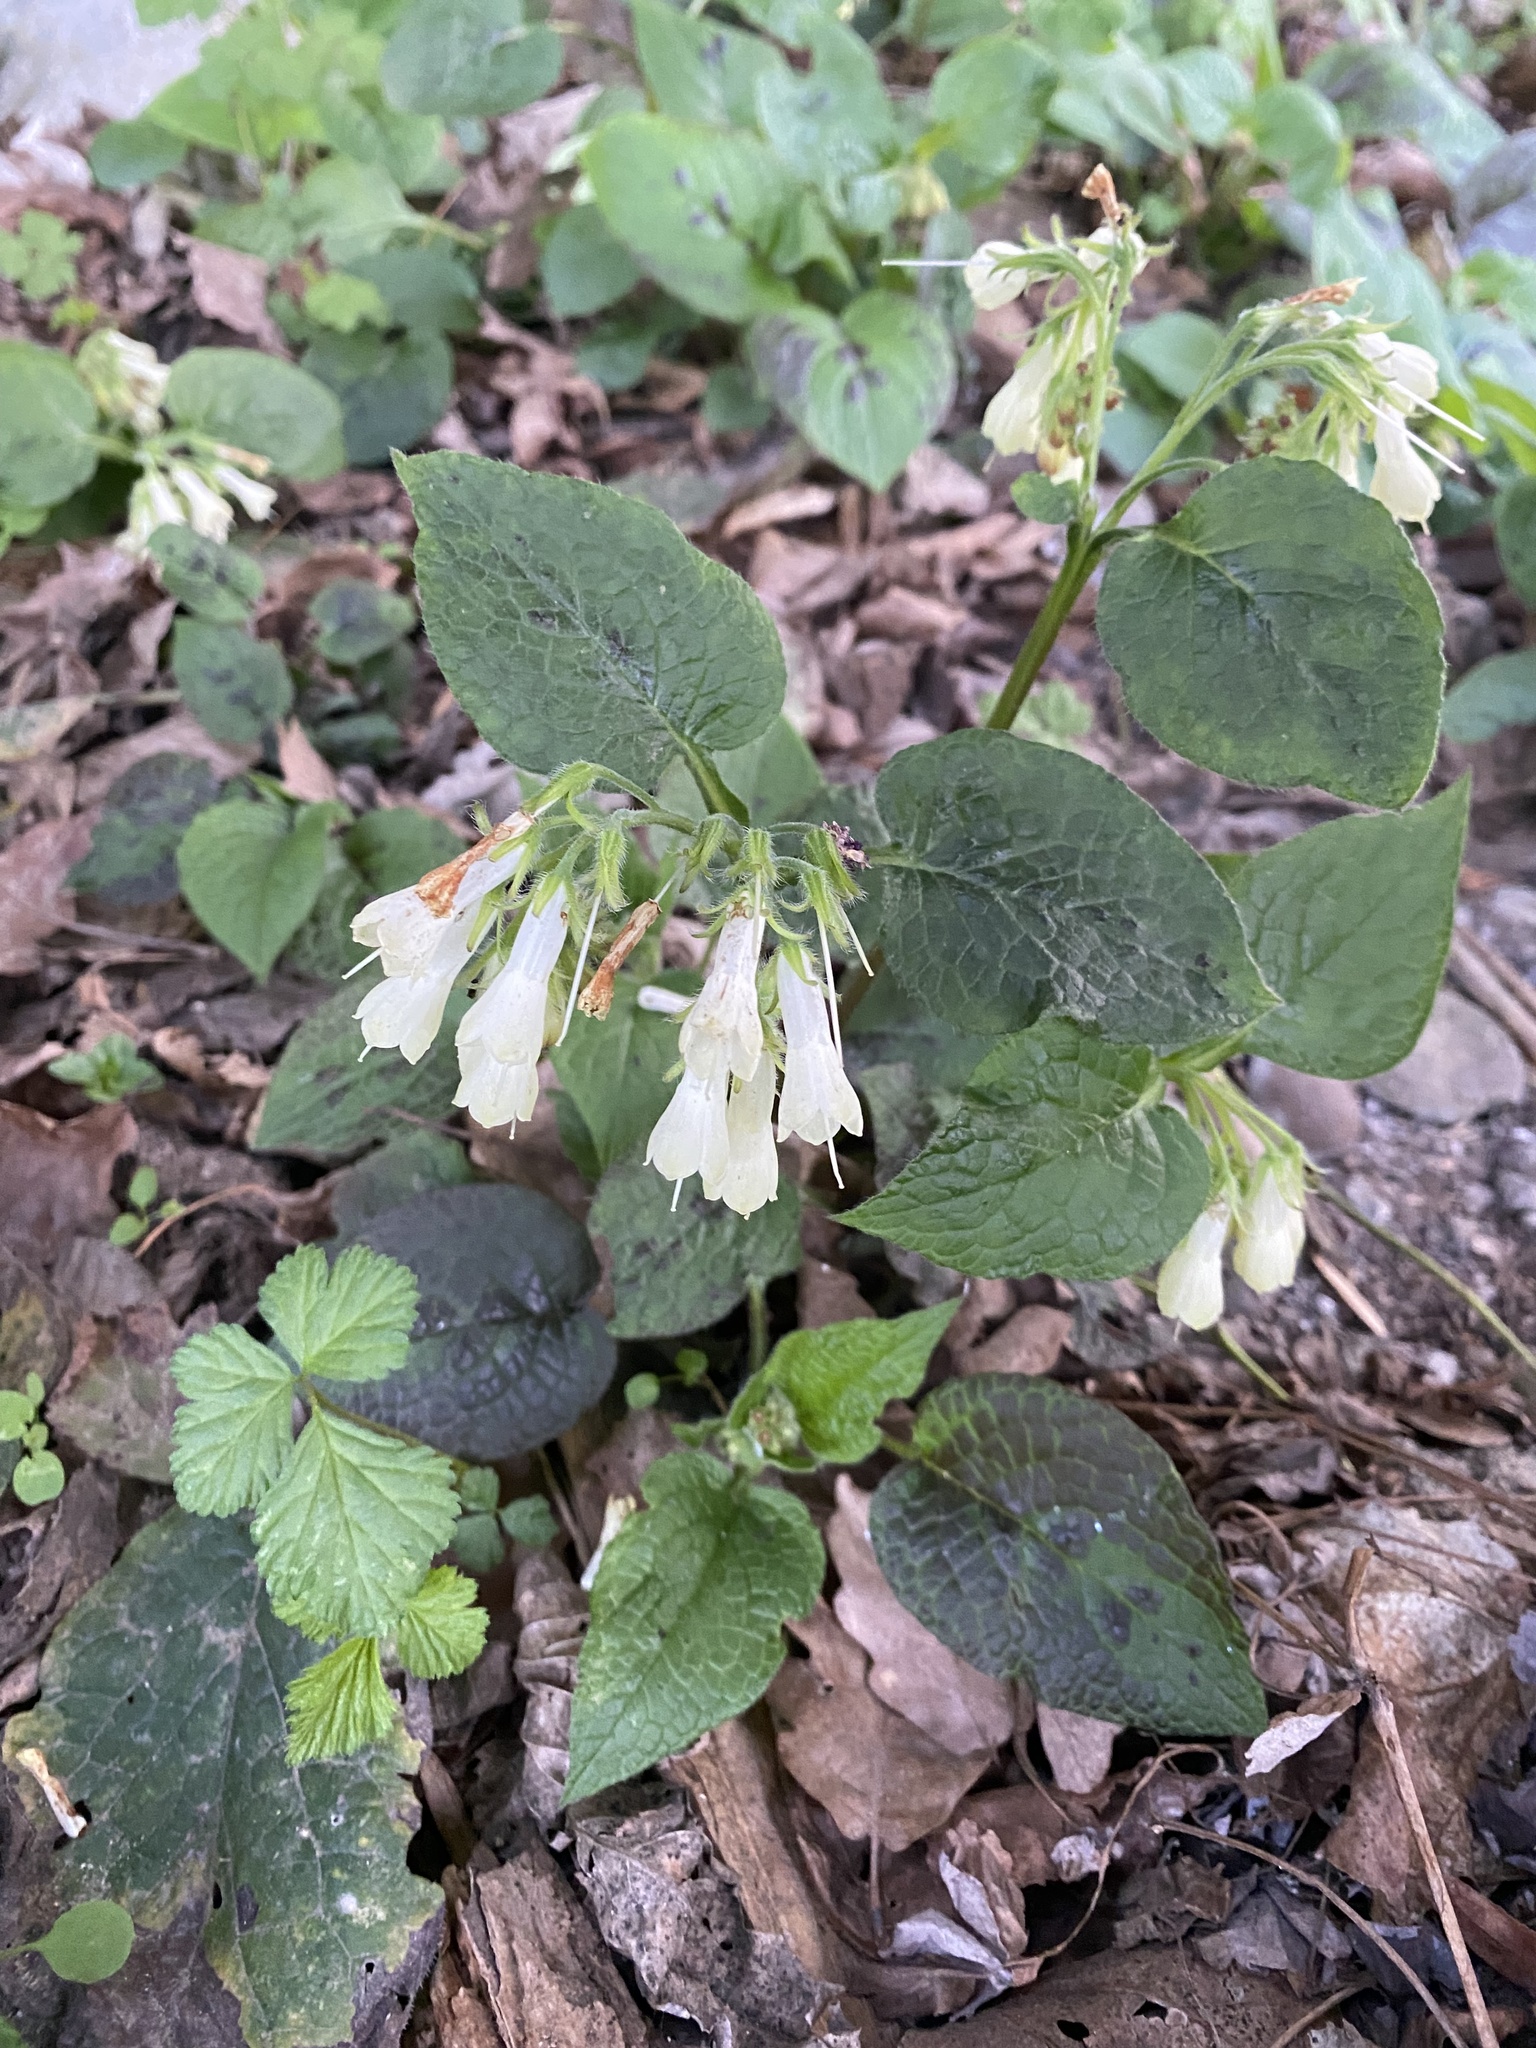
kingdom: Plantae
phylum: Tracheophyta
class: Magnoliopsida
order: Boraginales
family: Boraginaceae
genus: Symphytum
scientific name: Symphytum grandiflorum
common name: Creeping comfrey
